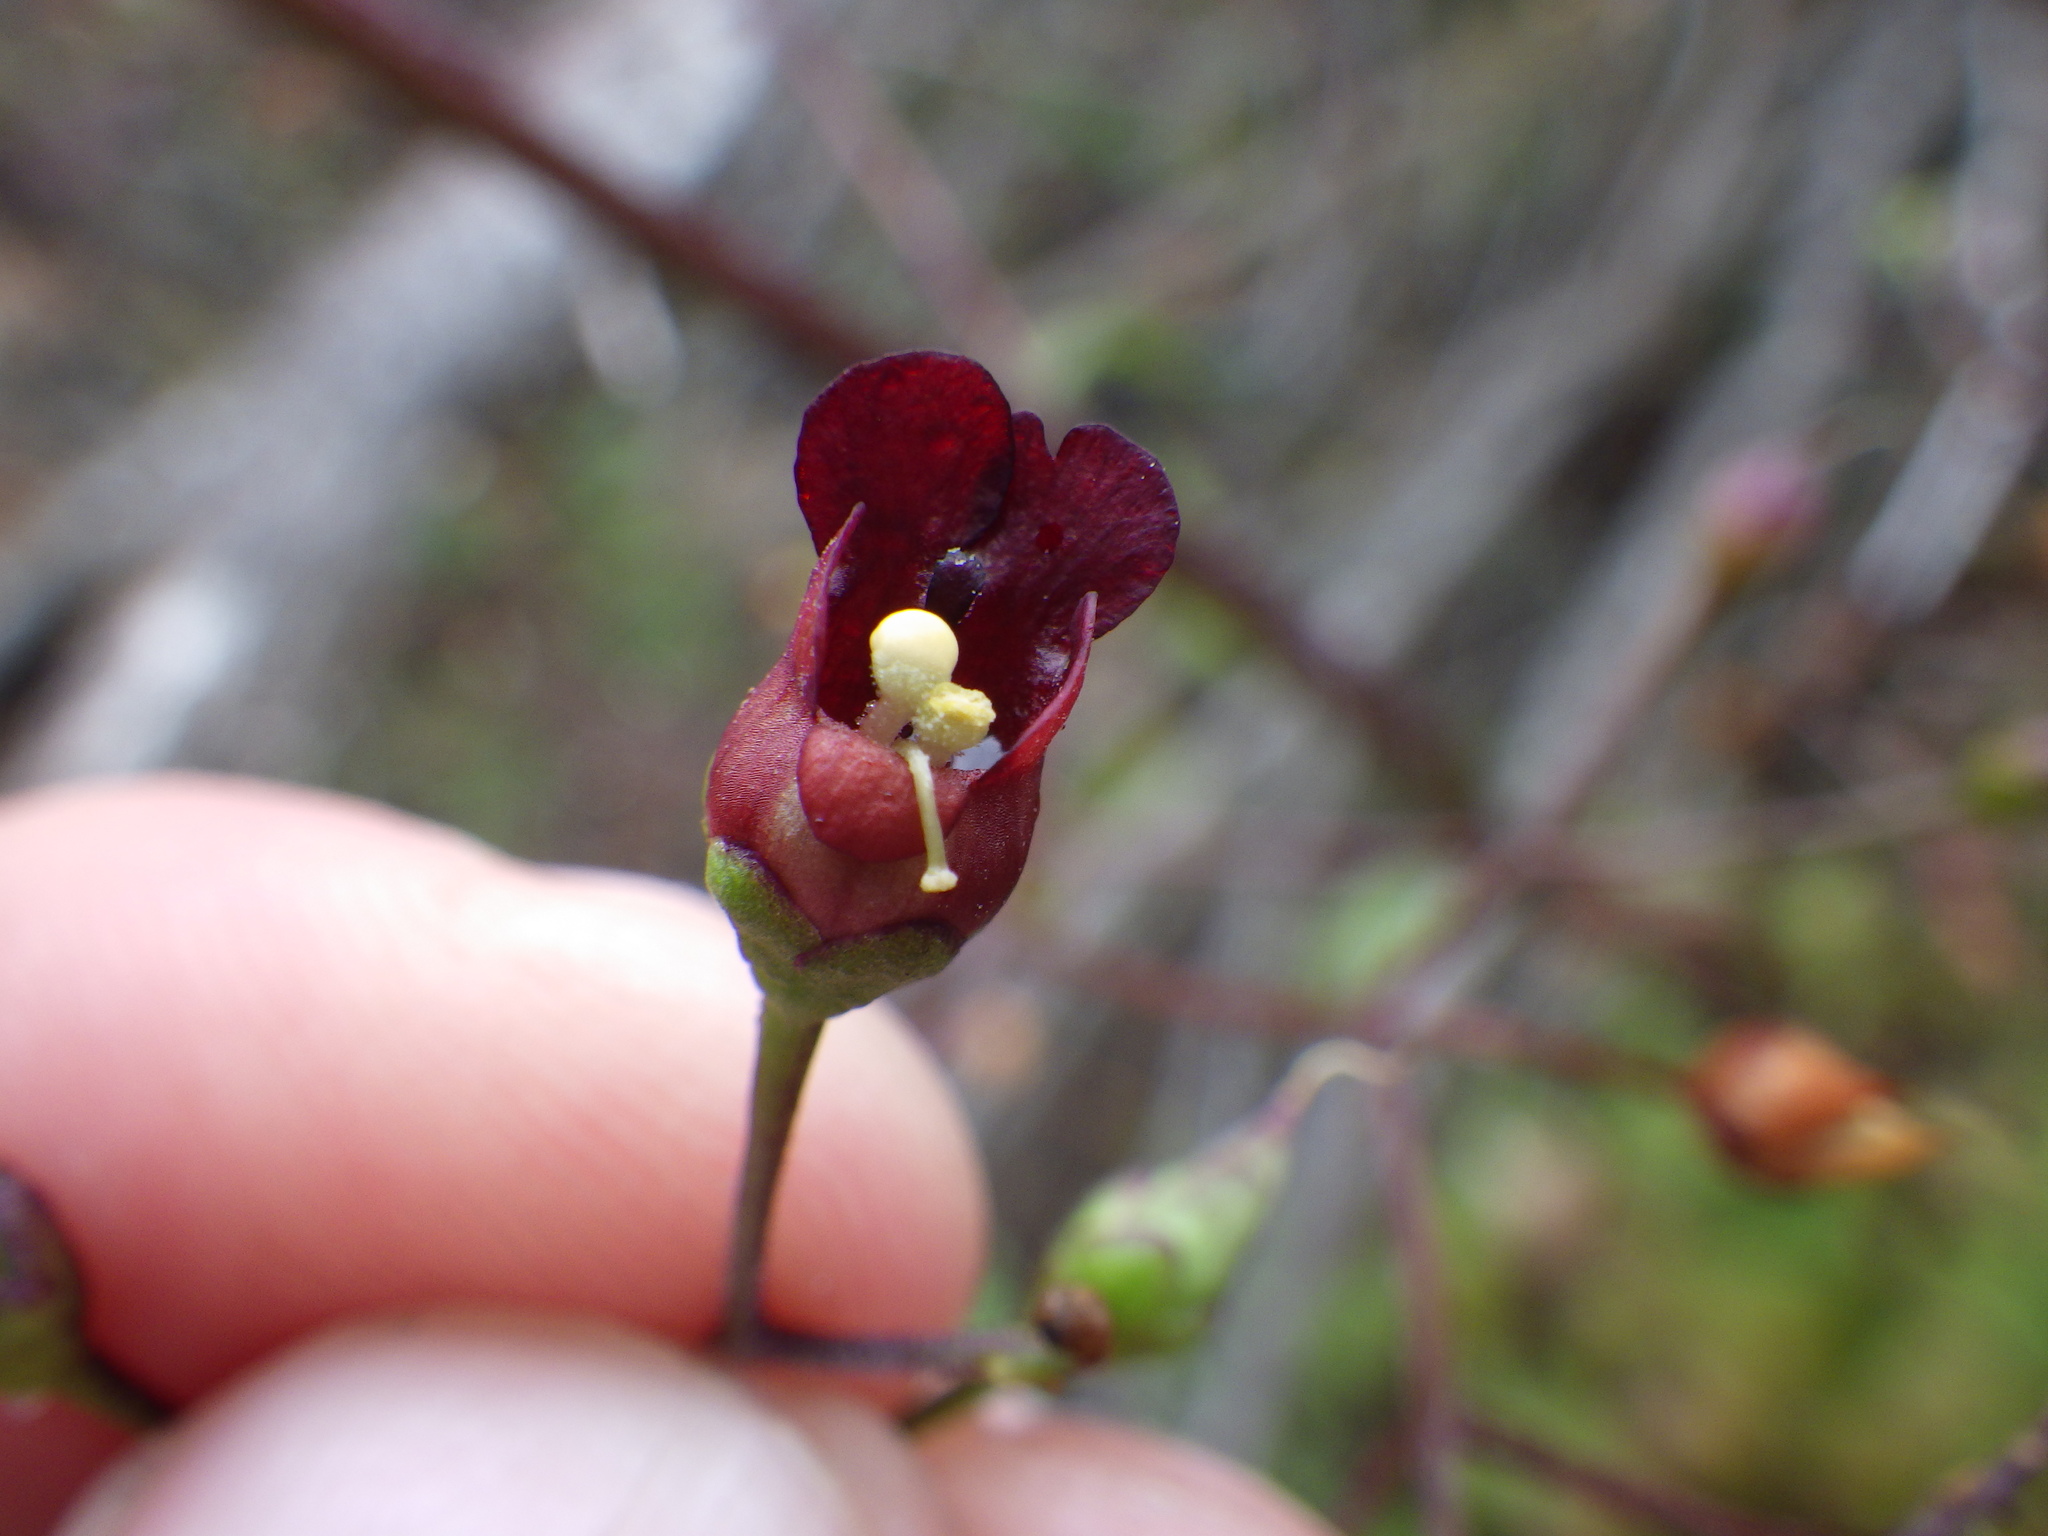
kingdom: Plantae
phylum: Tracheophyta
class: Magnoliopsida
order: Lamiales
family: Scrophulariaceae
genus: Scrophularia
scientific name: Scrophularia californica
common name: California figwort
